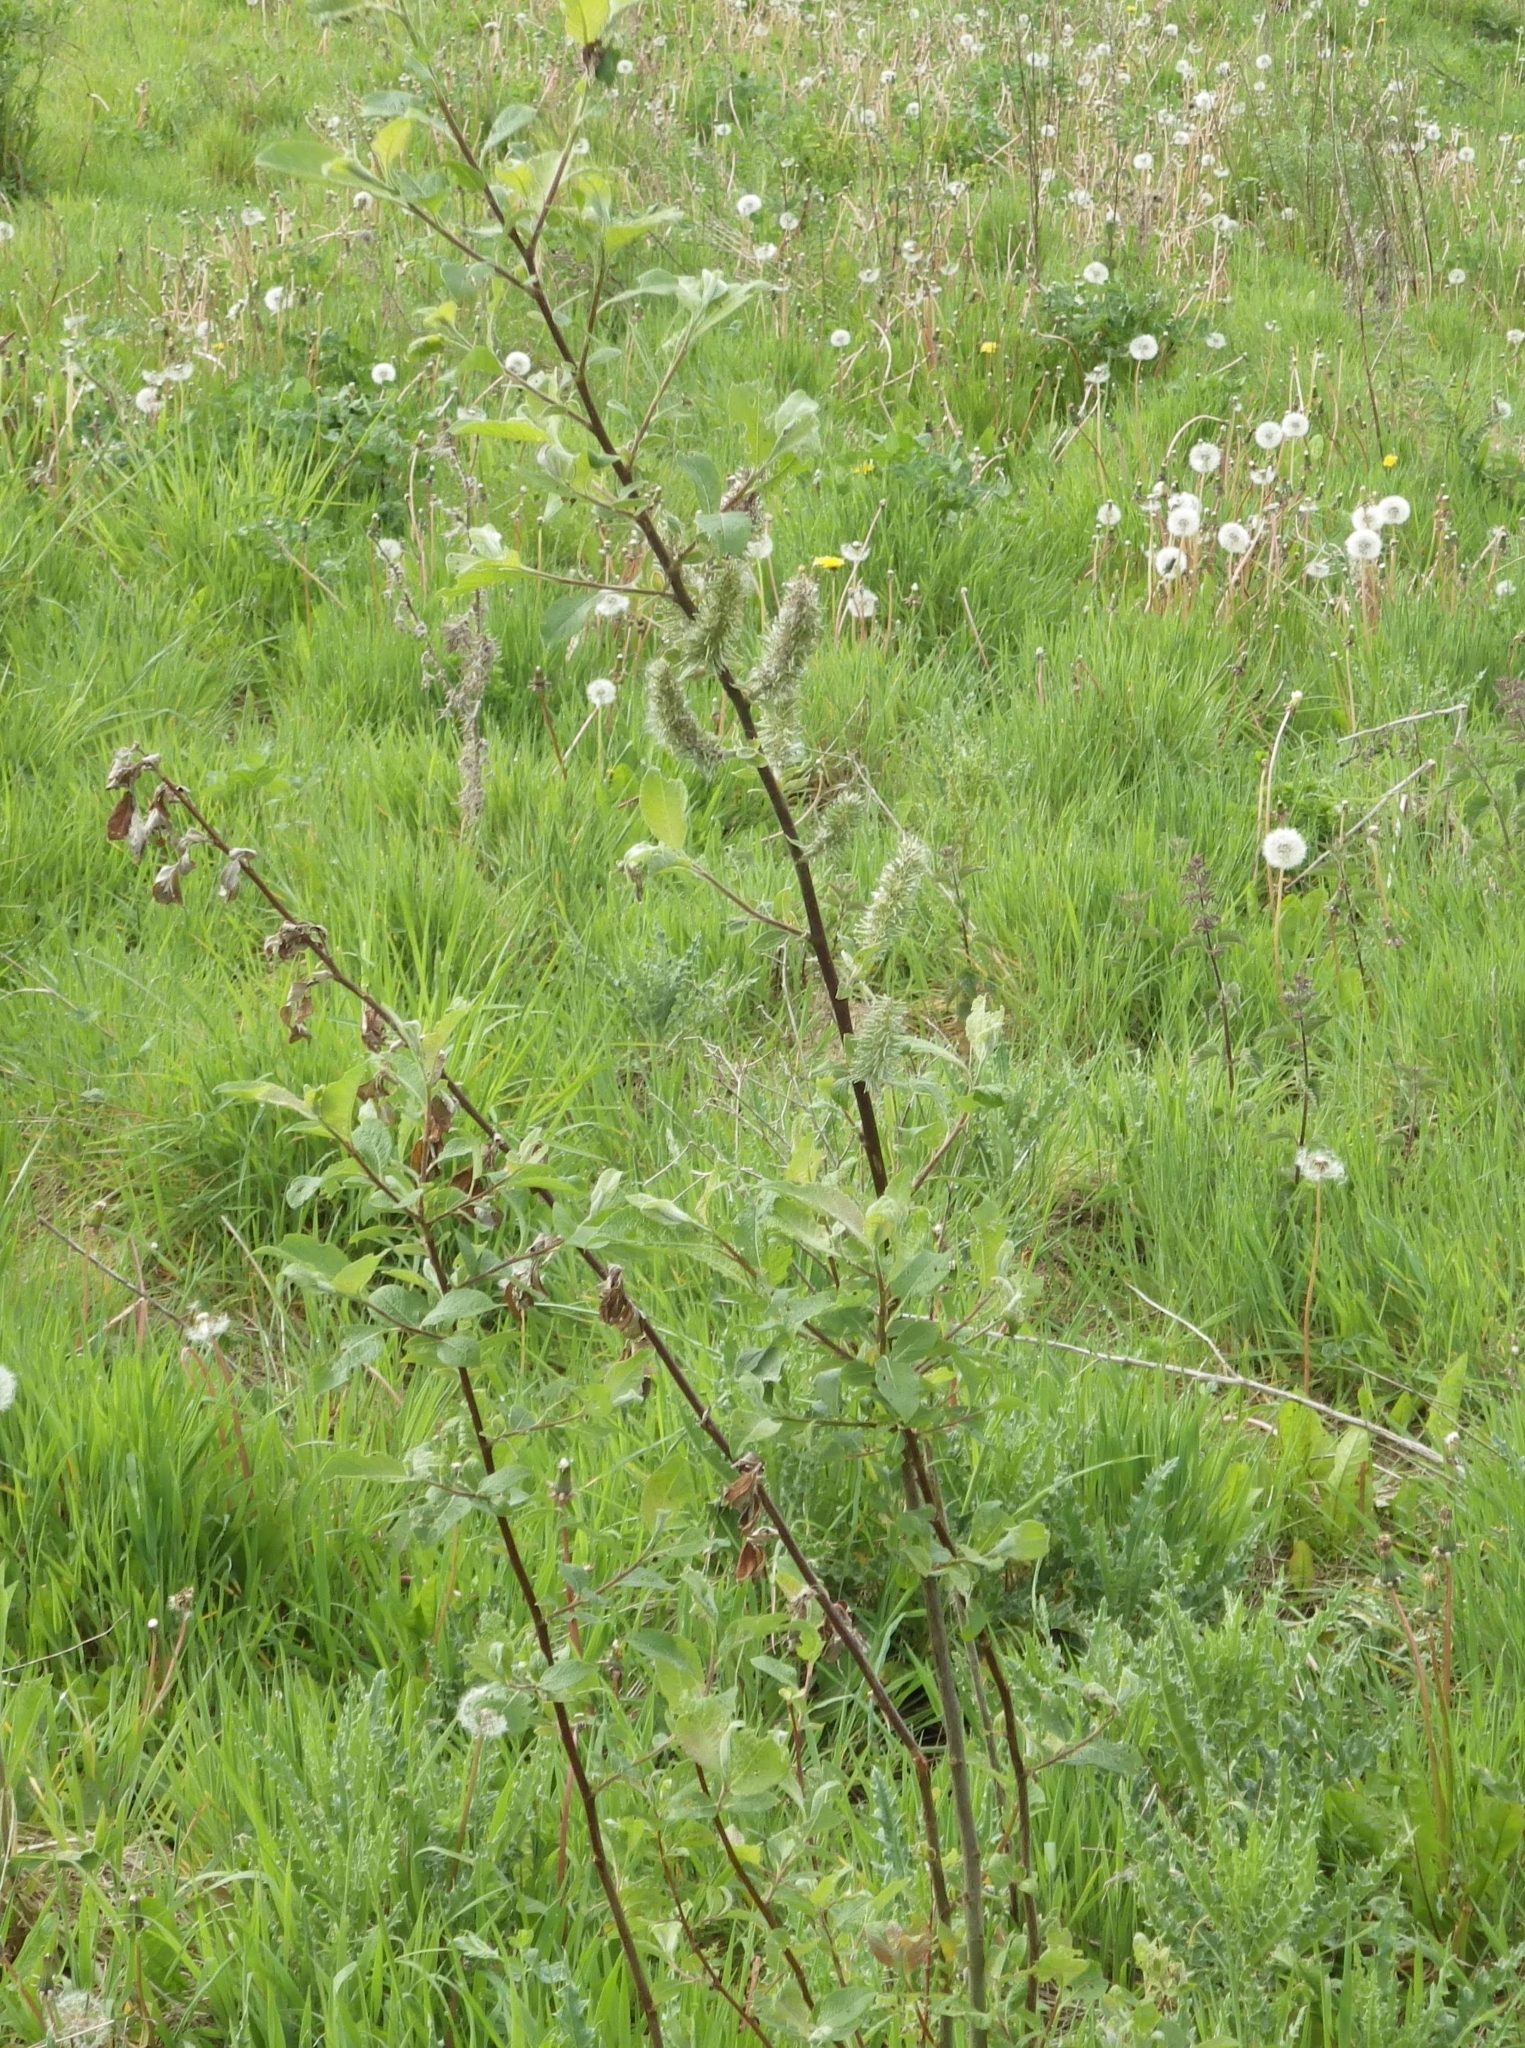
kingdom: Plantae
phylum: Tracheophyta
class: Magnoliopsida
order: Malpighiales
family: Salicaceae
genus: Salix
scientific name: Salix cinerea
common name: Common sallow
